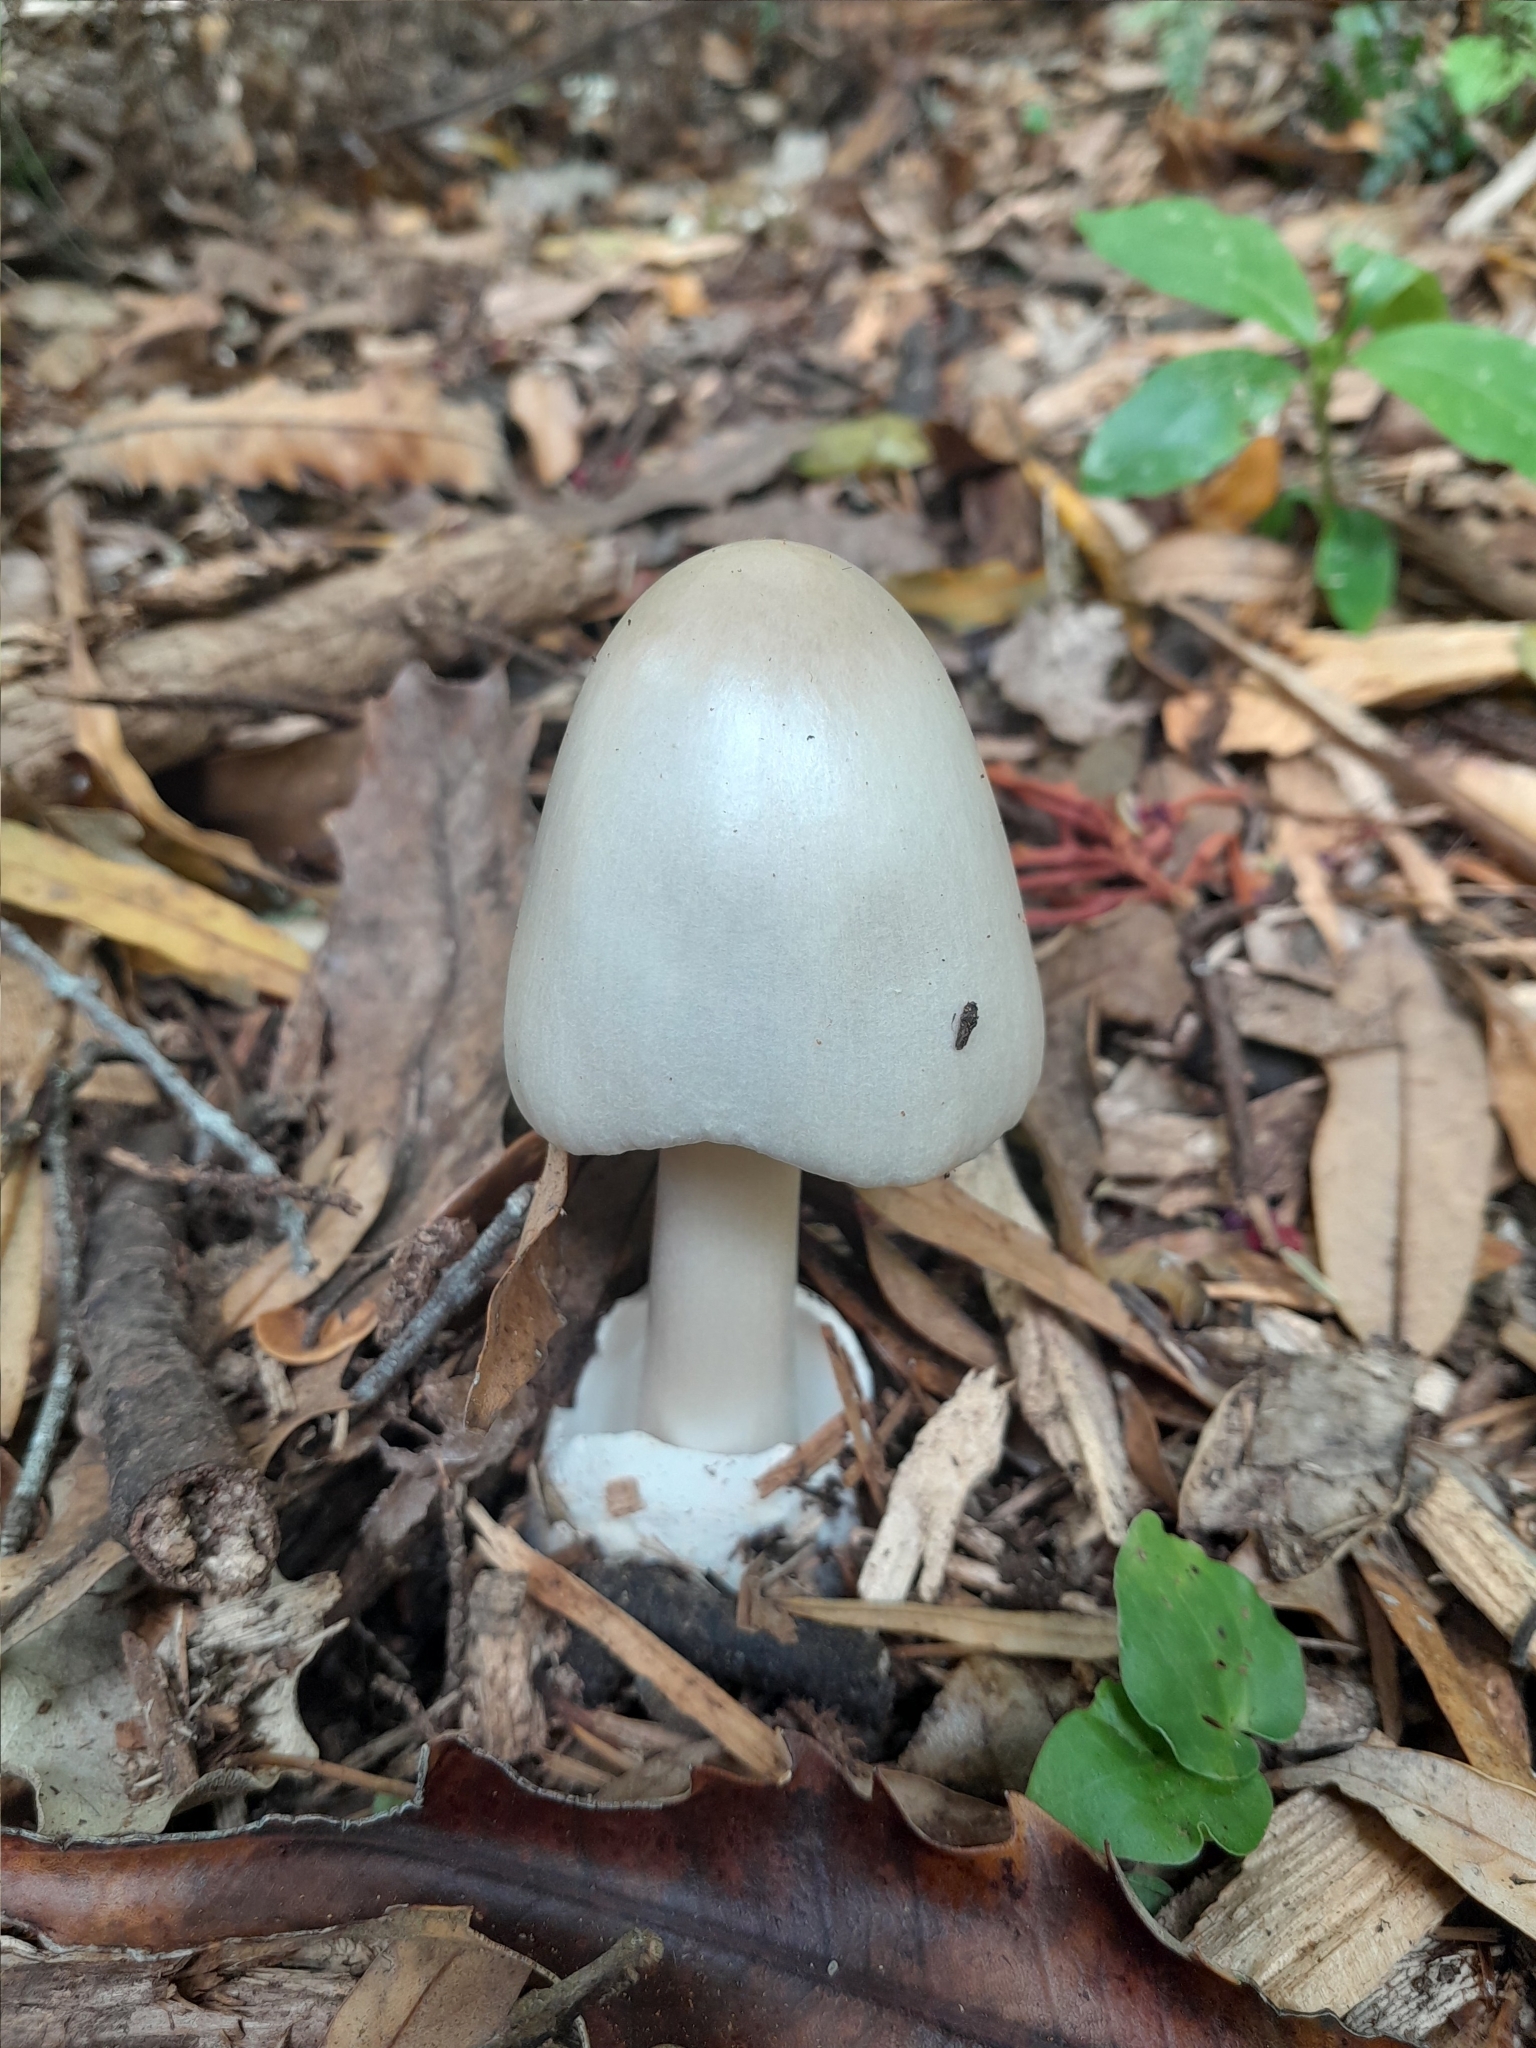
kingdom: Fungi
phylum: Basidiomycota
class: Agaricomycetes
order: Agaricales
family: Pluteaceae
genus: Volvopluteus
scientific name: Volvopluteus gloiocephalus
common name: Stubble rosegill
